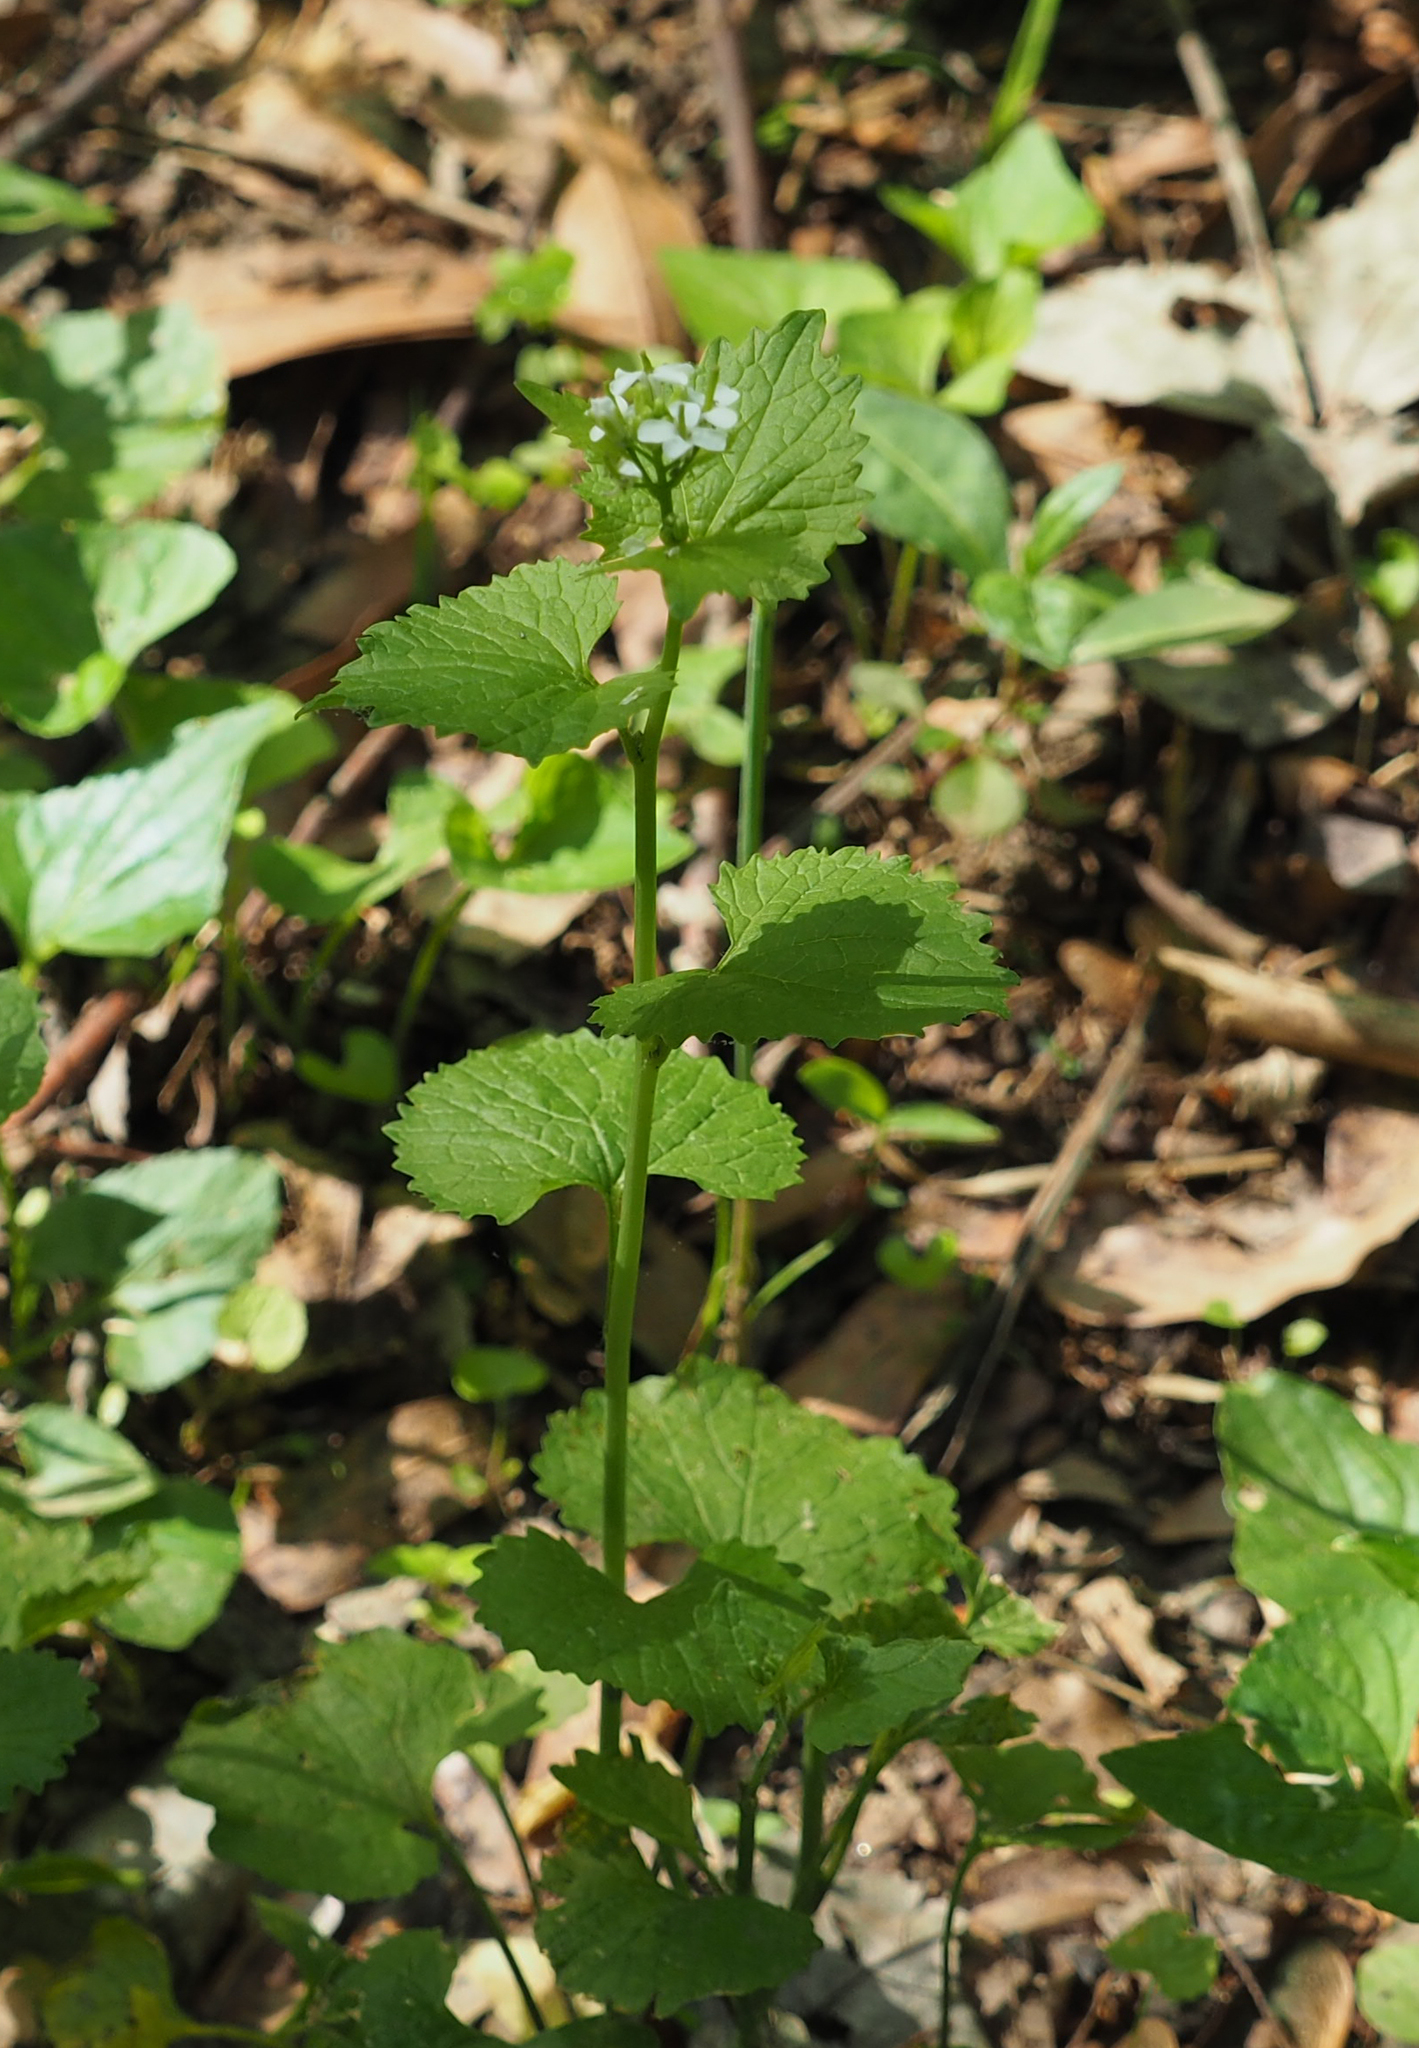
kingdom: Plantae
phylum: Tracheophyta
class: Magnoliopsida
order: Brassicales
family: Brassicaceae
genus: Alliaria
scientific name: Alliaria petiolata
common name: Garlic mustard
